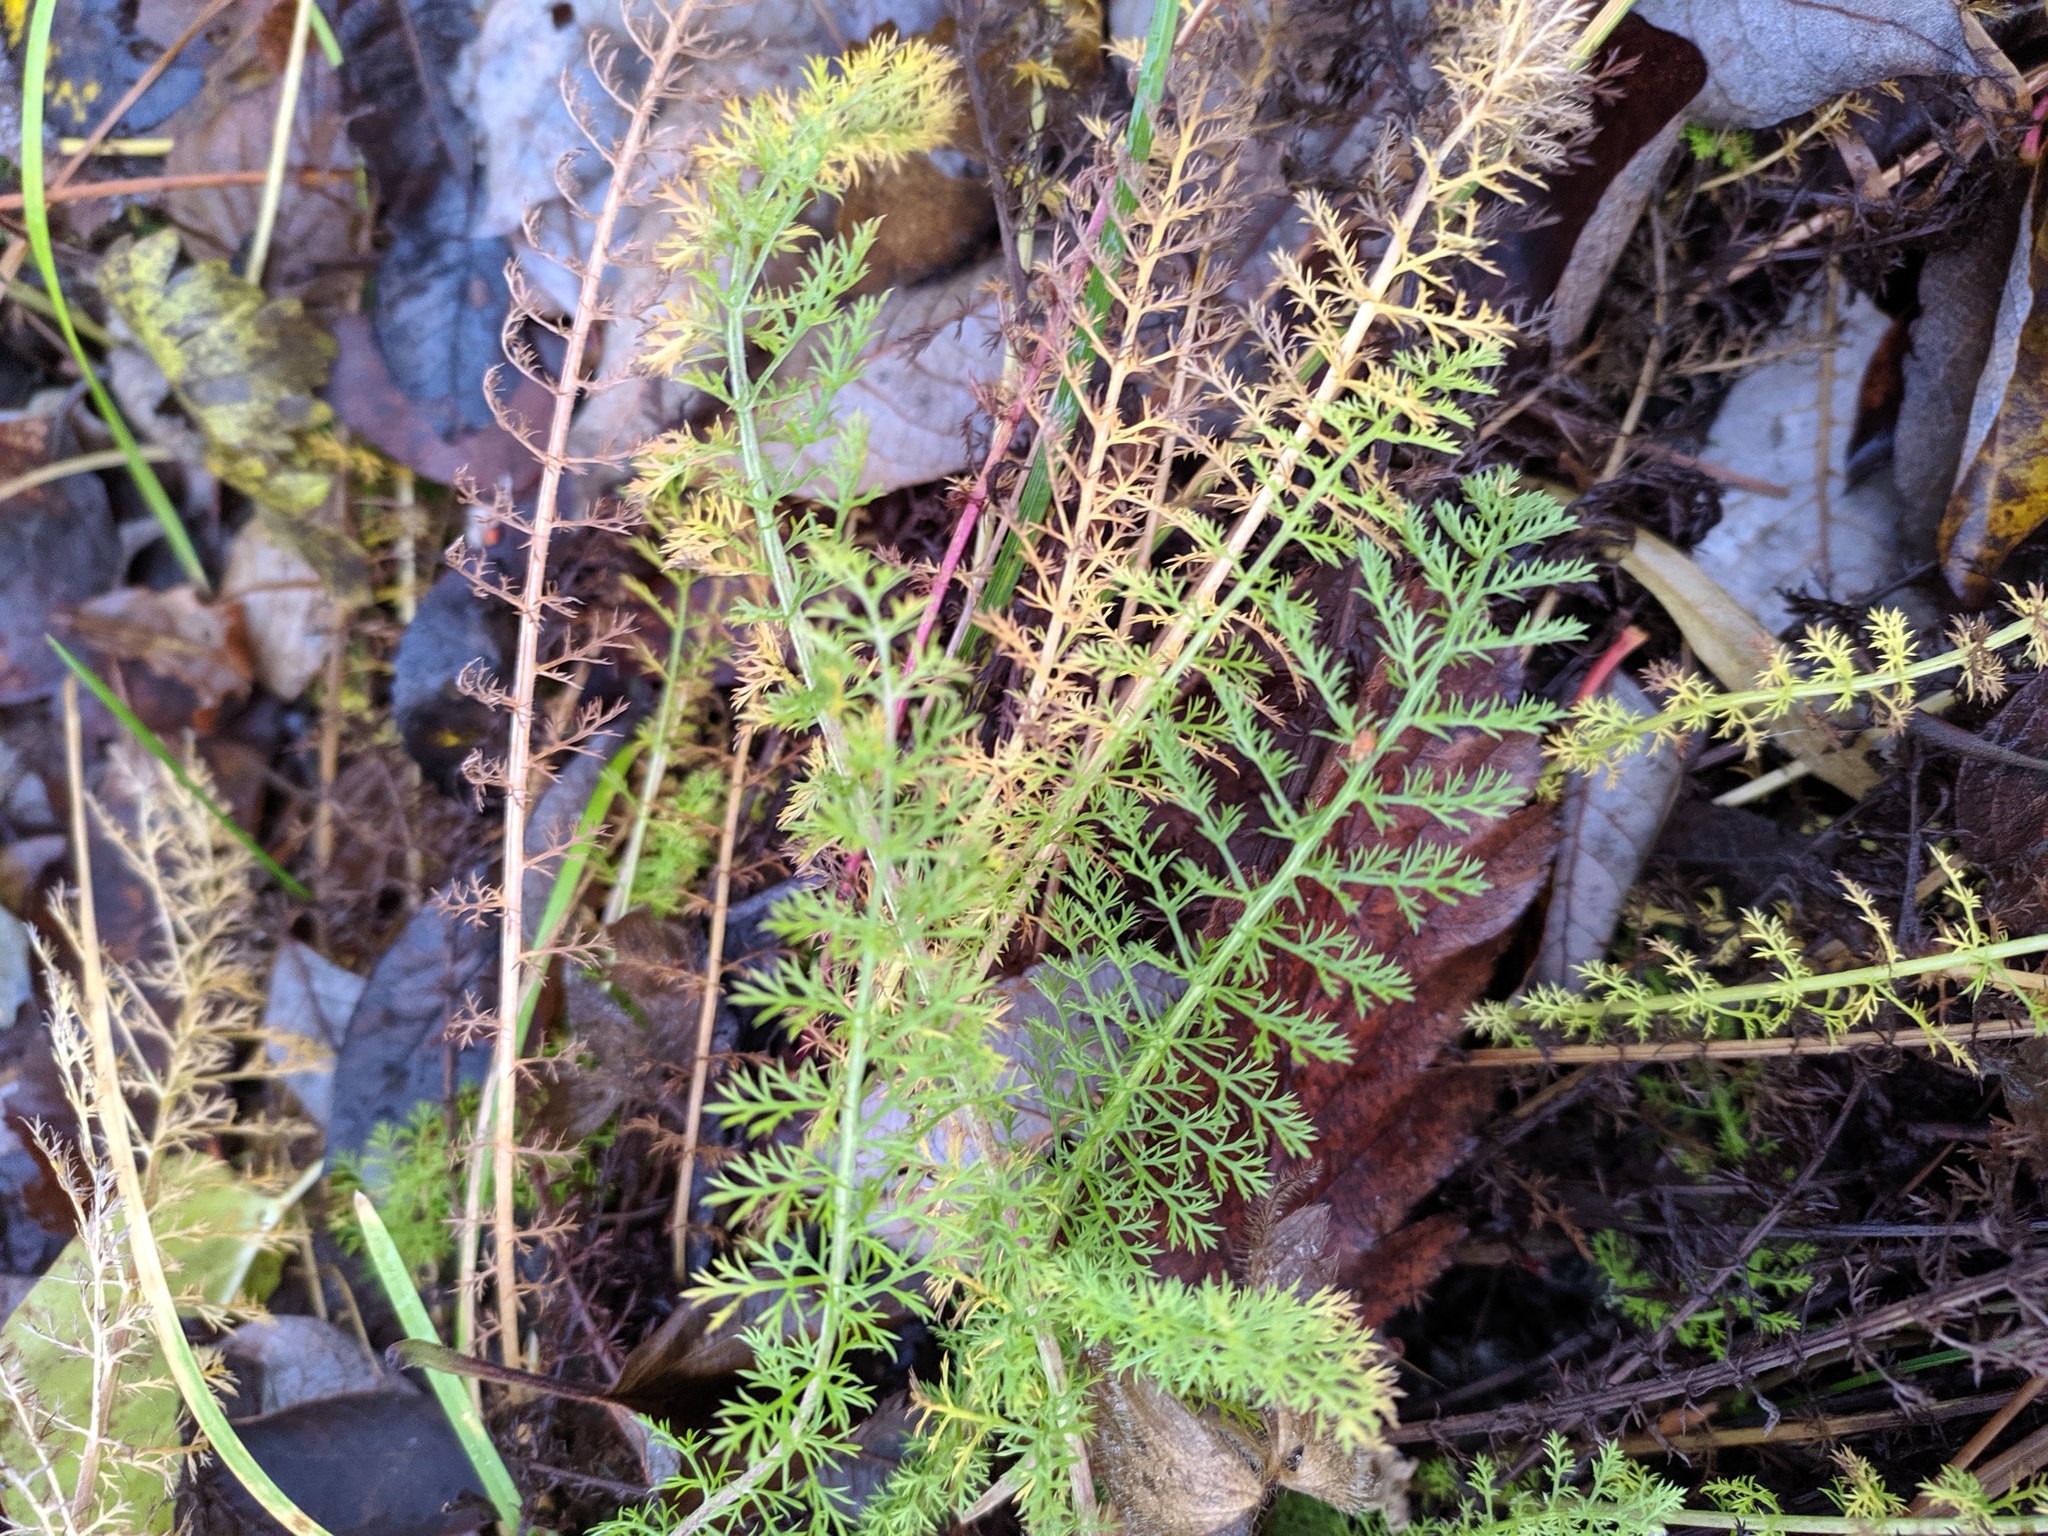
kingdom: Plantae
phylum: Tracheophyta
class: Magnoliopsida
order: Asterales
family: Asteraceae
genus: Achillea
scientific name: Achillea millefolium
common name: Yarrow
